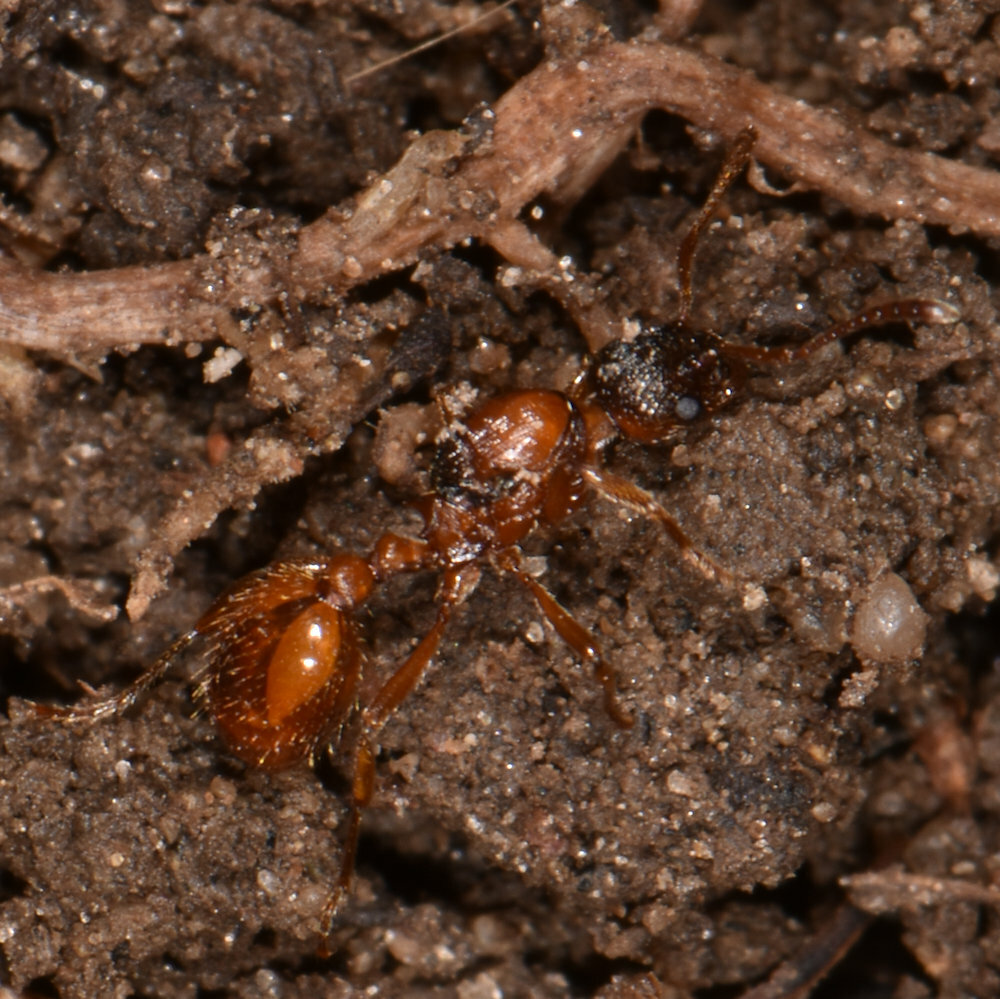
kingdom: Animalia
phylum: Arthropoda
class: Insecta
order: Hymenoptera
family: Formicidae
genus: Myrmica
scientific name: Myrmica rubra
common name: European fire ant
